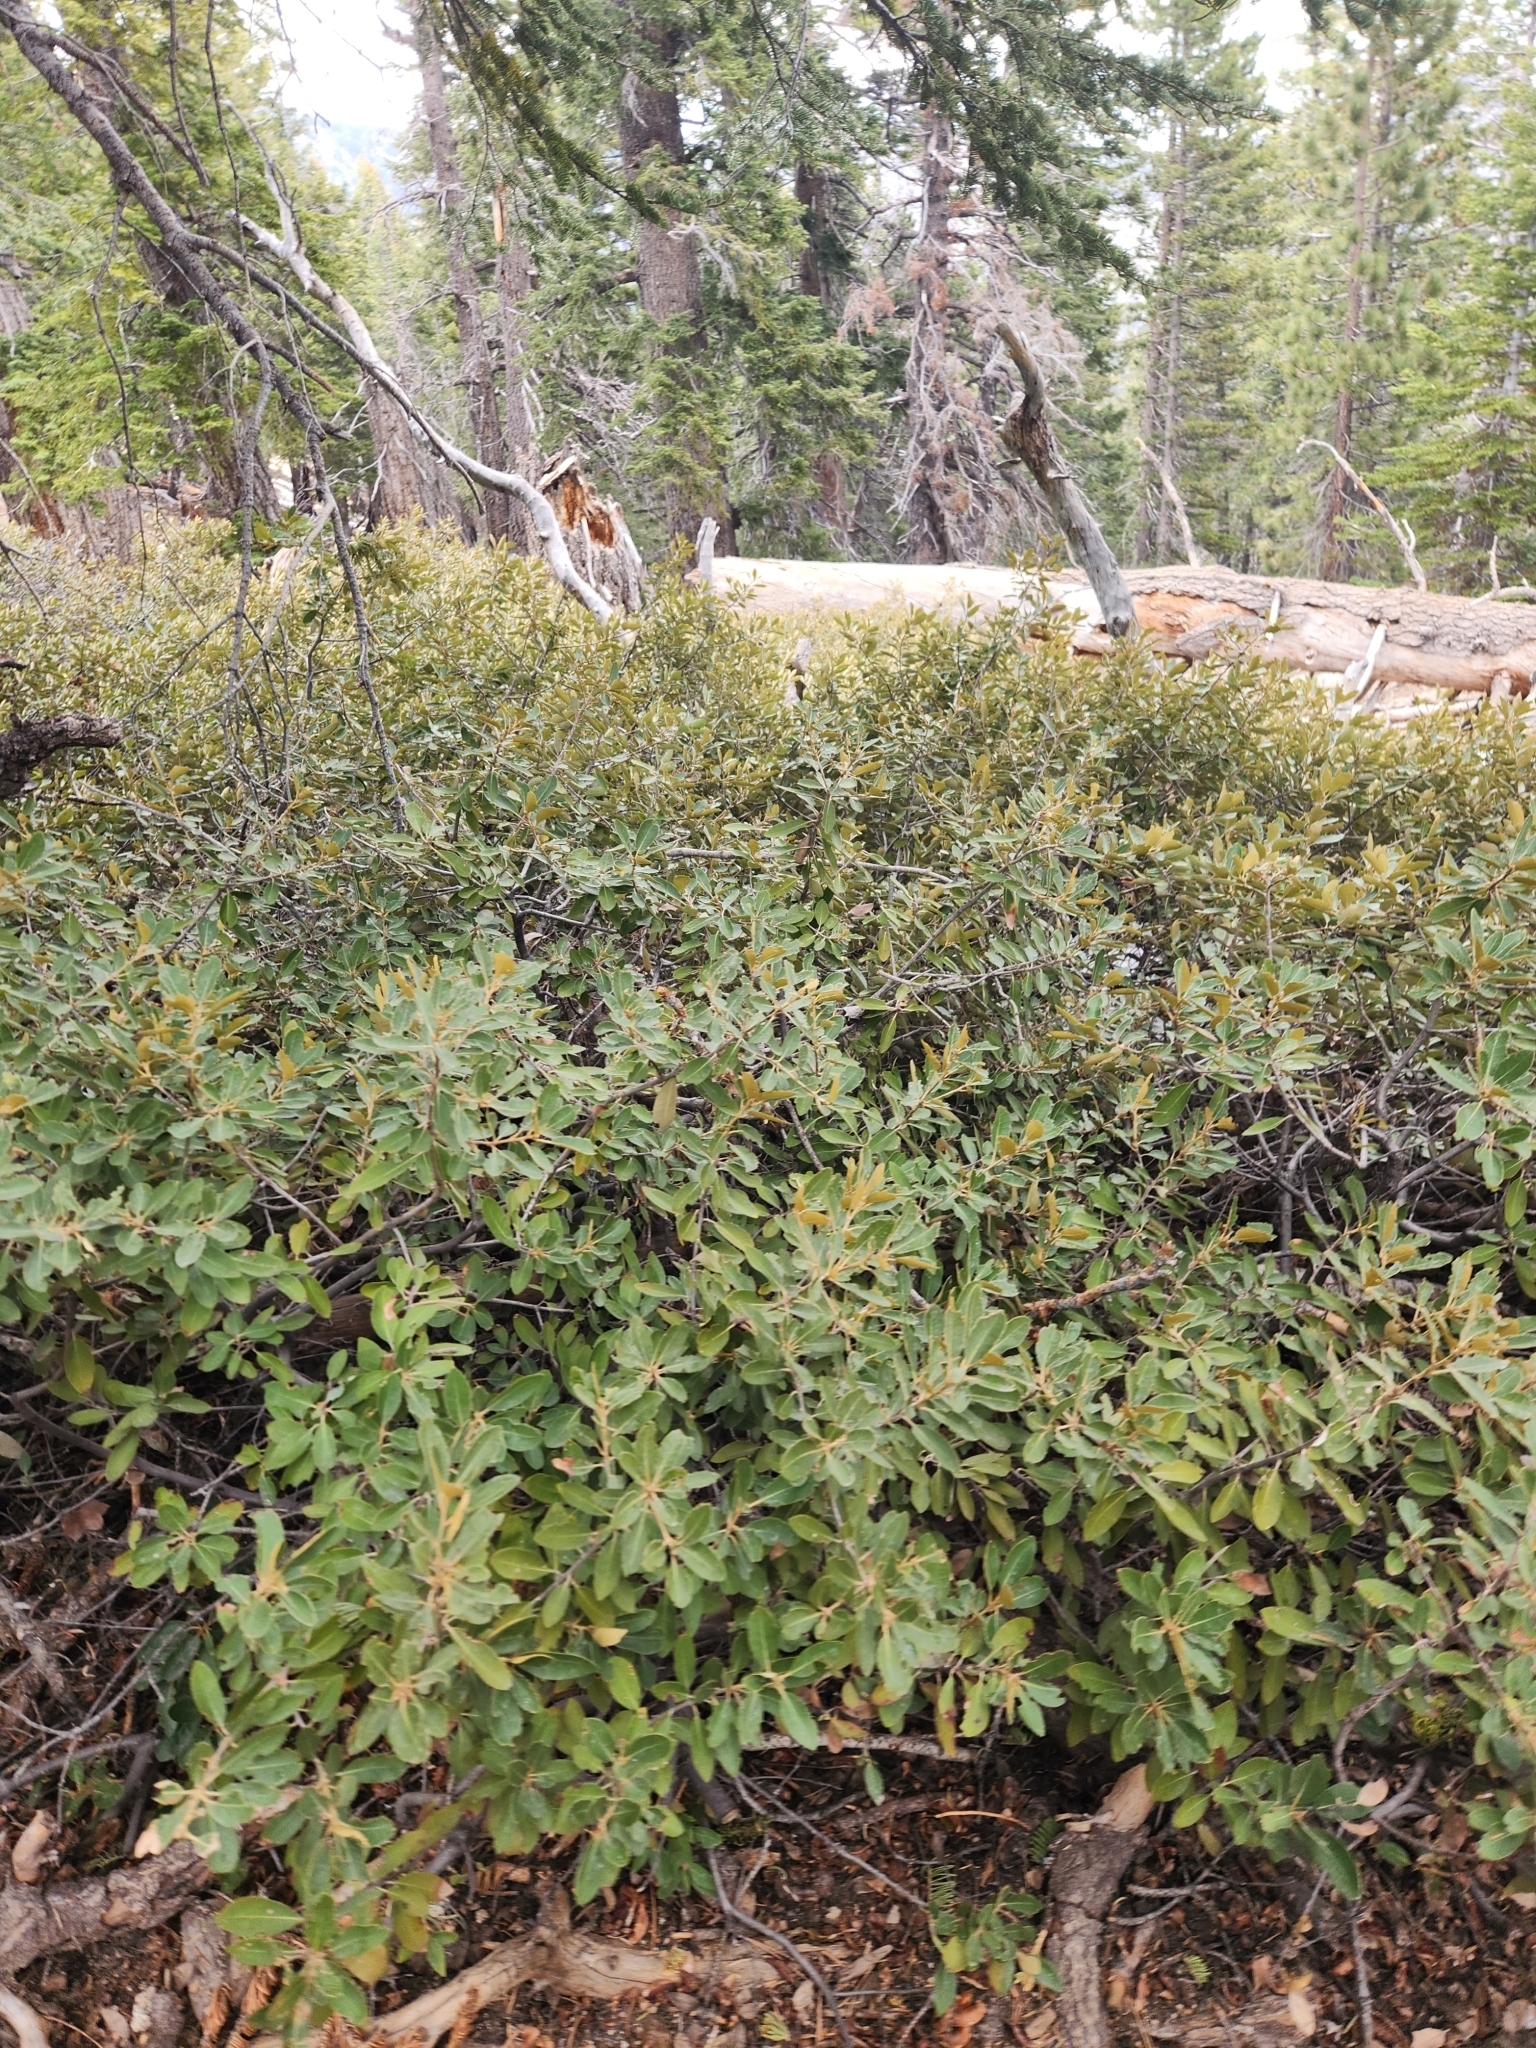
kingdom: Plantae
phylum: Tracheophyta
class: Magnoliopsida
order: Fagales
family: Fagaceae
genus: Chrysolepis
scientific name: Chrysolepis sempervirens
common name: Bush chinquapin
